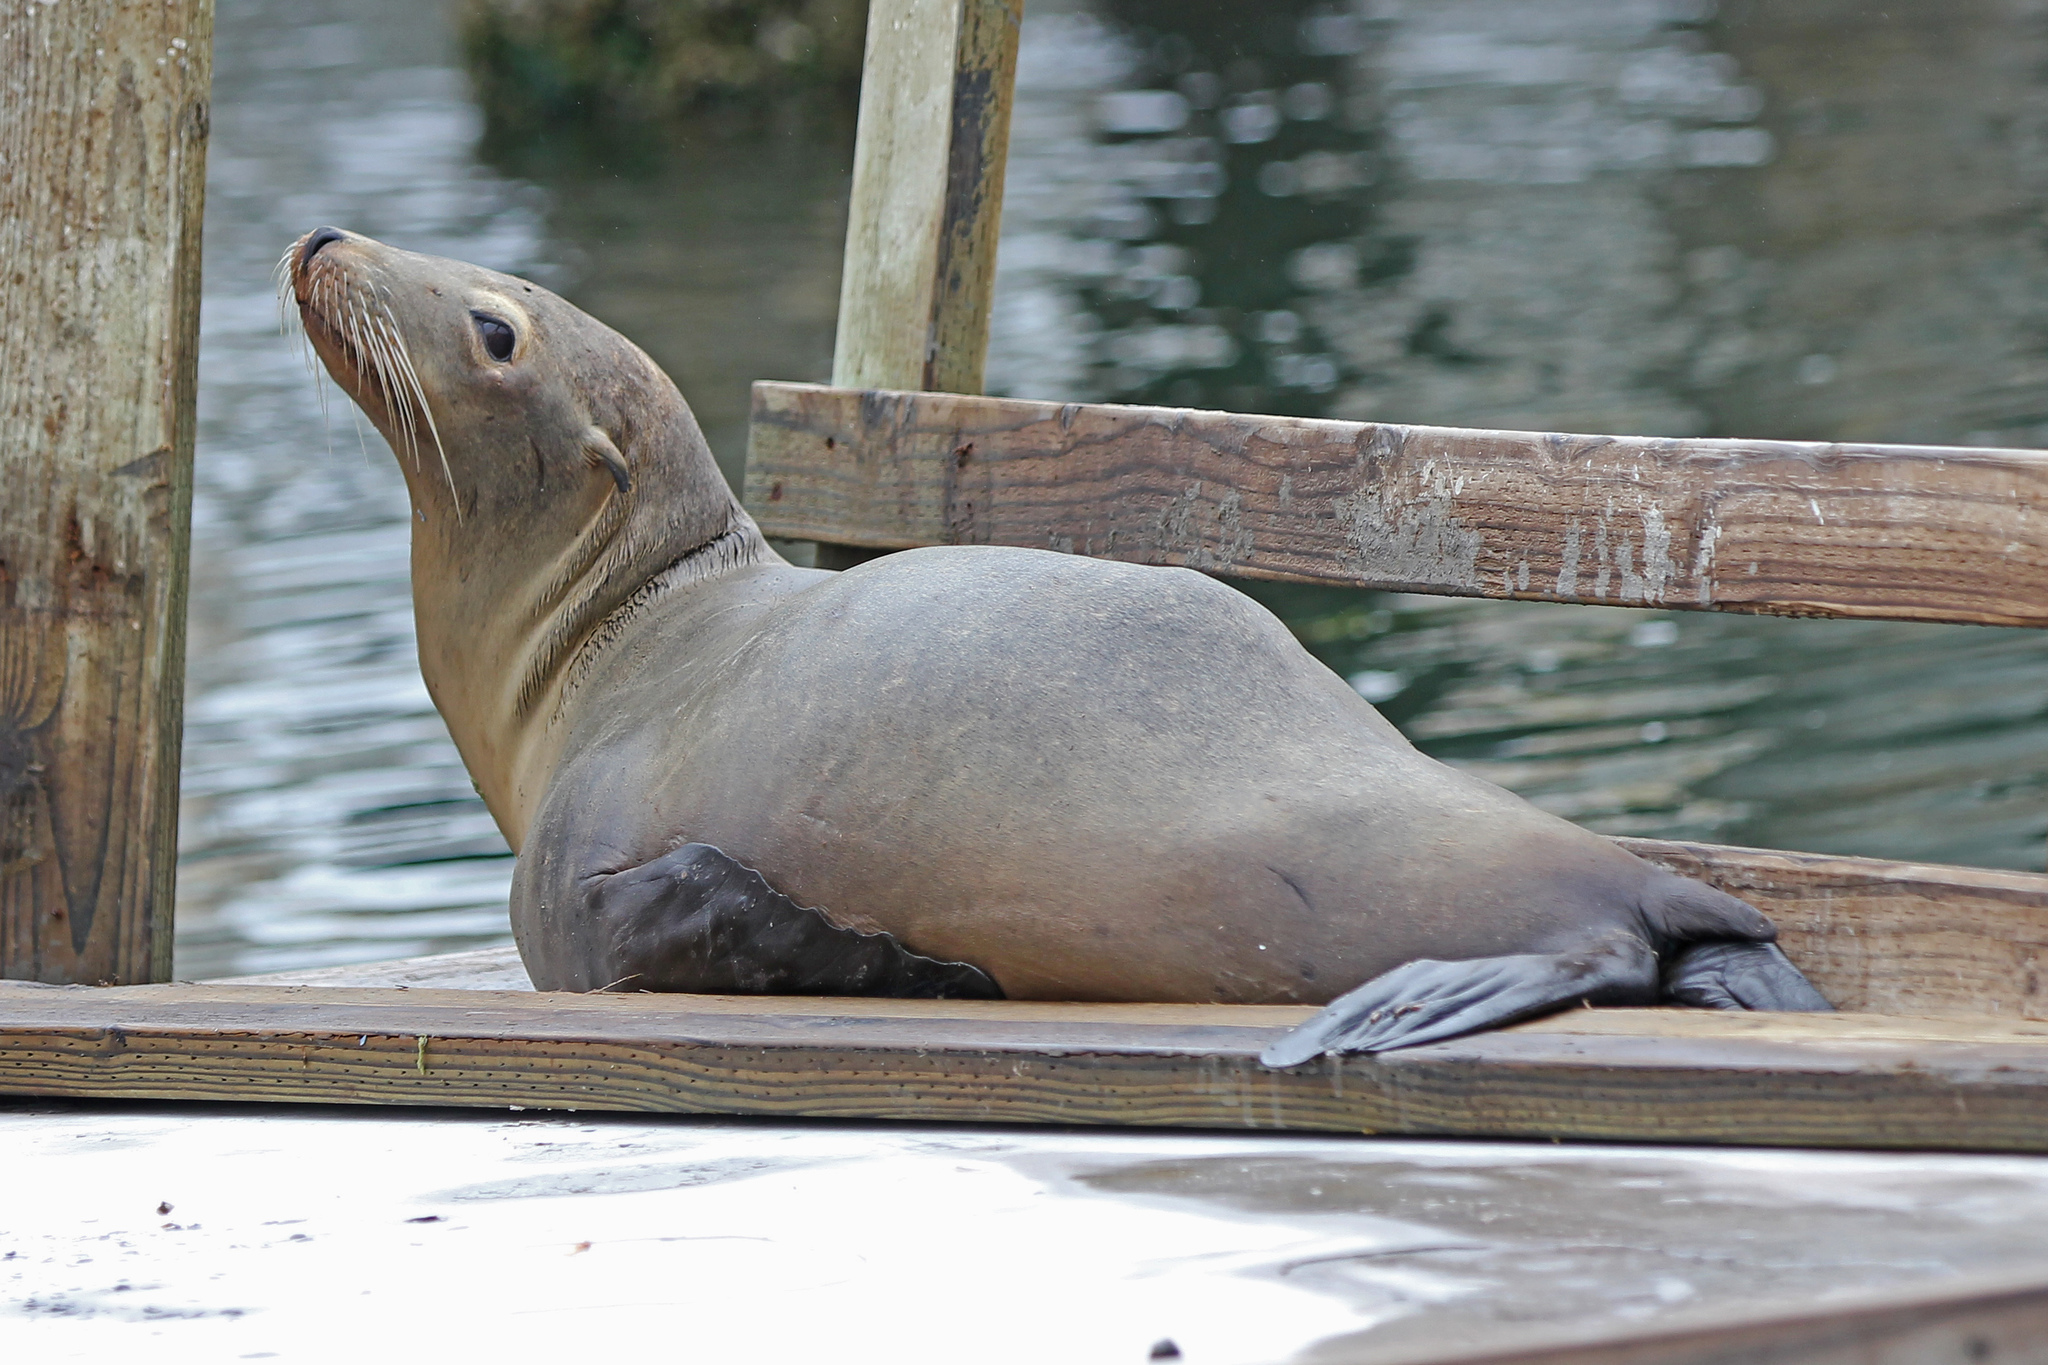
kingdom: Animalia
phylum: Chordata
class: Mammalia
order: Carnivora
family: Otariidae
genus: Zalophus
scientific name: Zalophus californianus
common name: California sea lion
